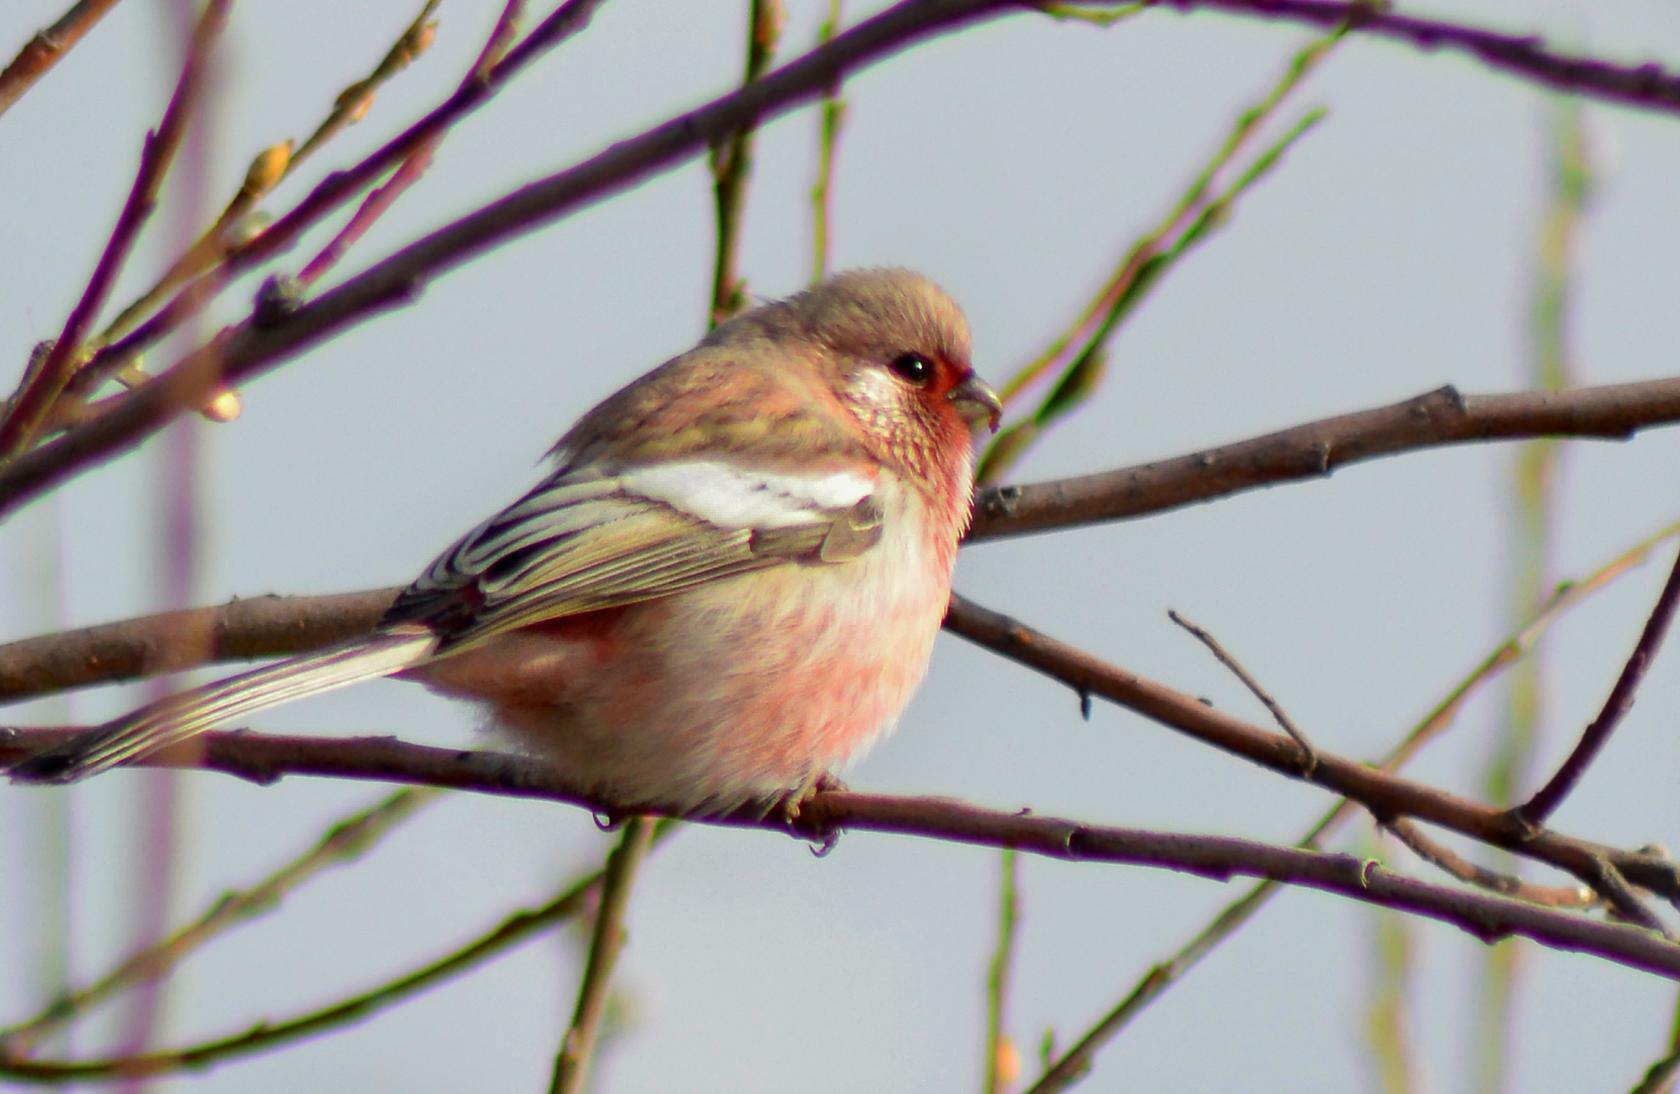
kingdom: Animalia
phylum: Chordata
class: Aves
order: Passeriformes
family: Fringillidae
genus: Carpodacus
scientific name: Carpodacus sibiricus
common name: Long-tailed rosefinch
